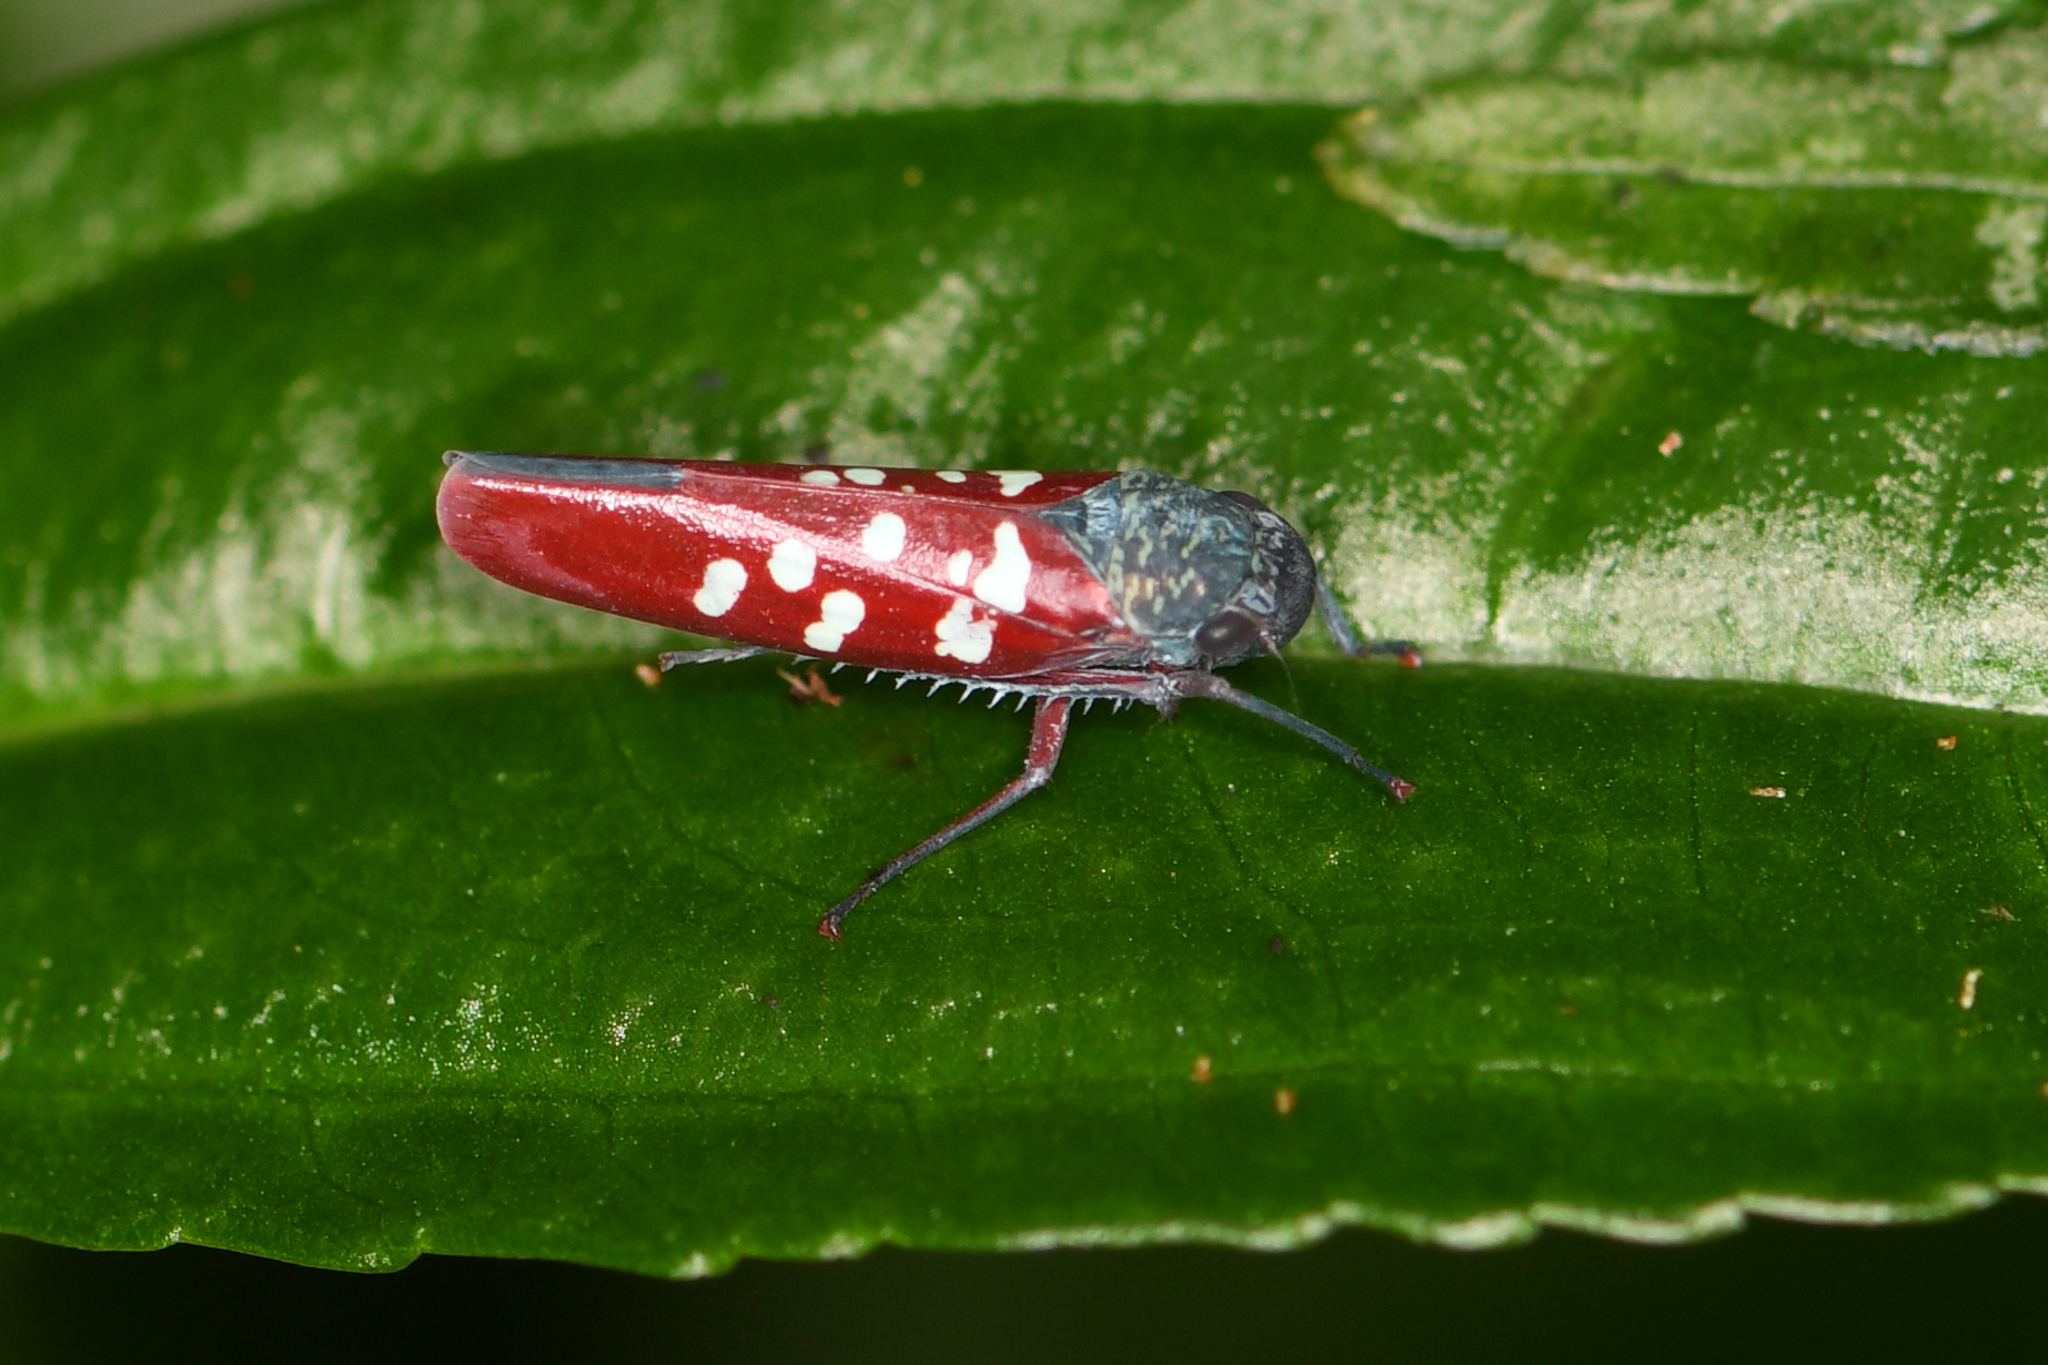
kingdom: Animalia
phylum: Arthropoda
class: Insecta
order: Hemiptera
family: Cicadellidae
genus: Graphocephala
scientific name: Graphocephala albomaculata
